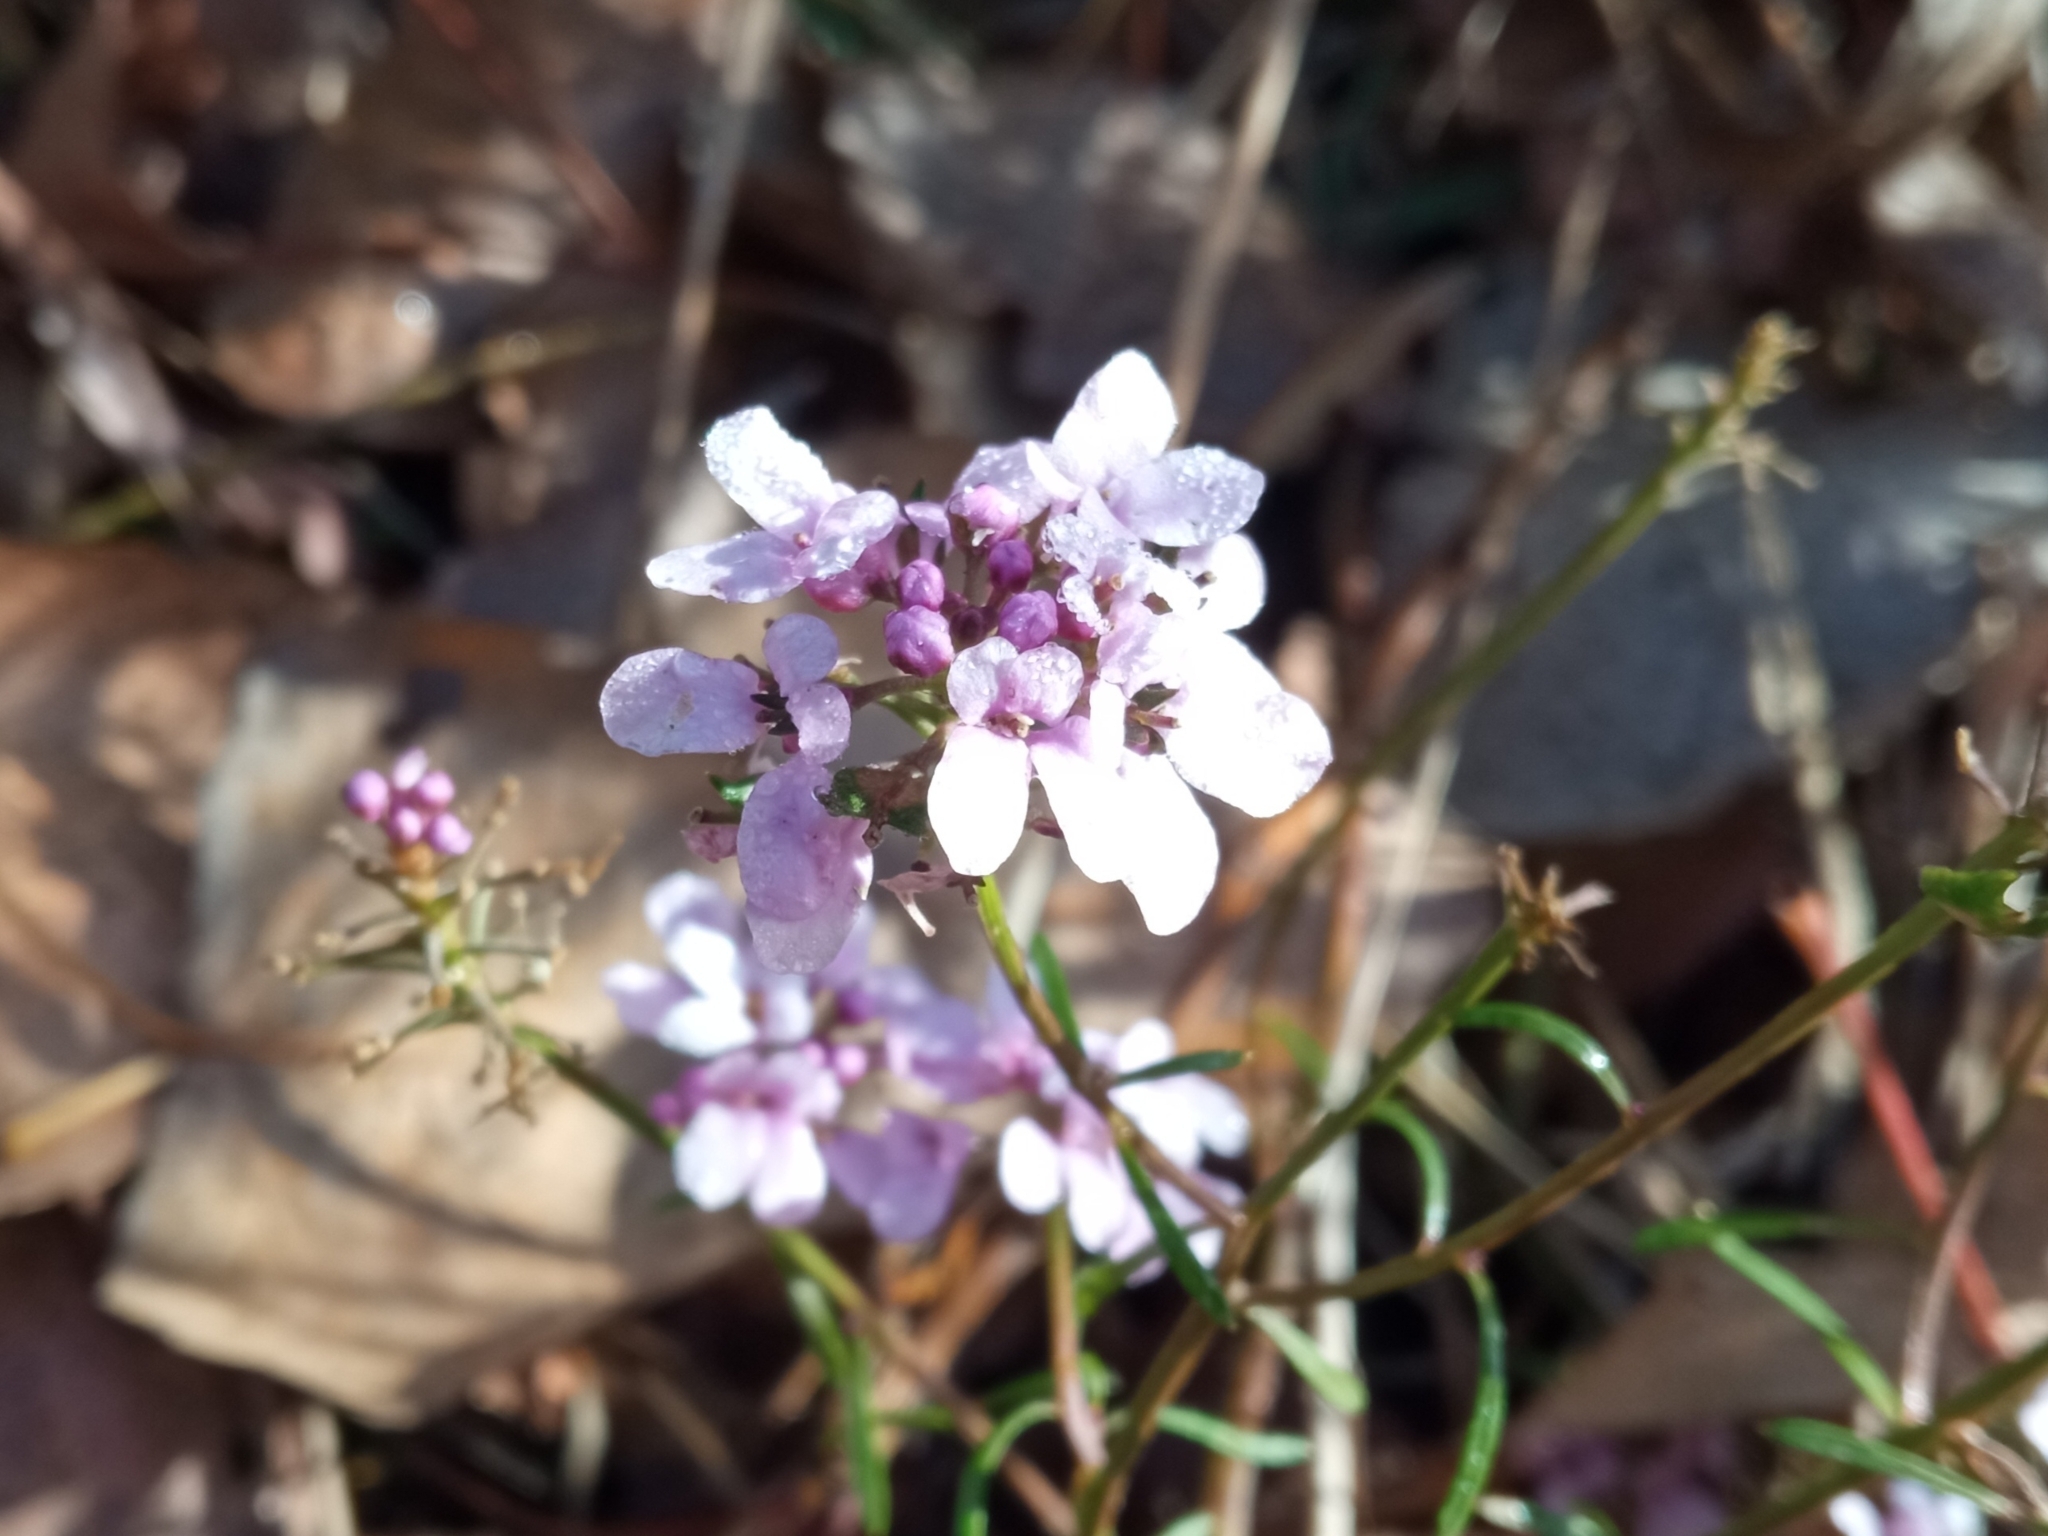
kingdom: Plantae
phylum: Tracheophyta
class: Magnoliopsida
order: Brassicales
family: Brassicaceae
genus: Iberis
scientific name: Iberis linifolia
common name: Candytuft
